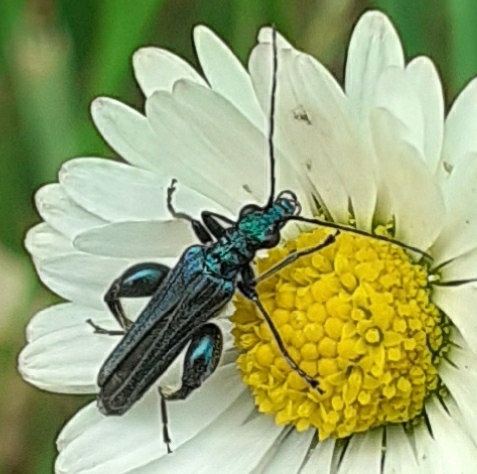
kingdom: Animalia
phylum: Arthropoda
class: Insecta
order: Coleoptera
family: Oedemeridae
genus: Oedemera
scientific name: Oedemera nobilis
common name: Swollen-thighed beetle
